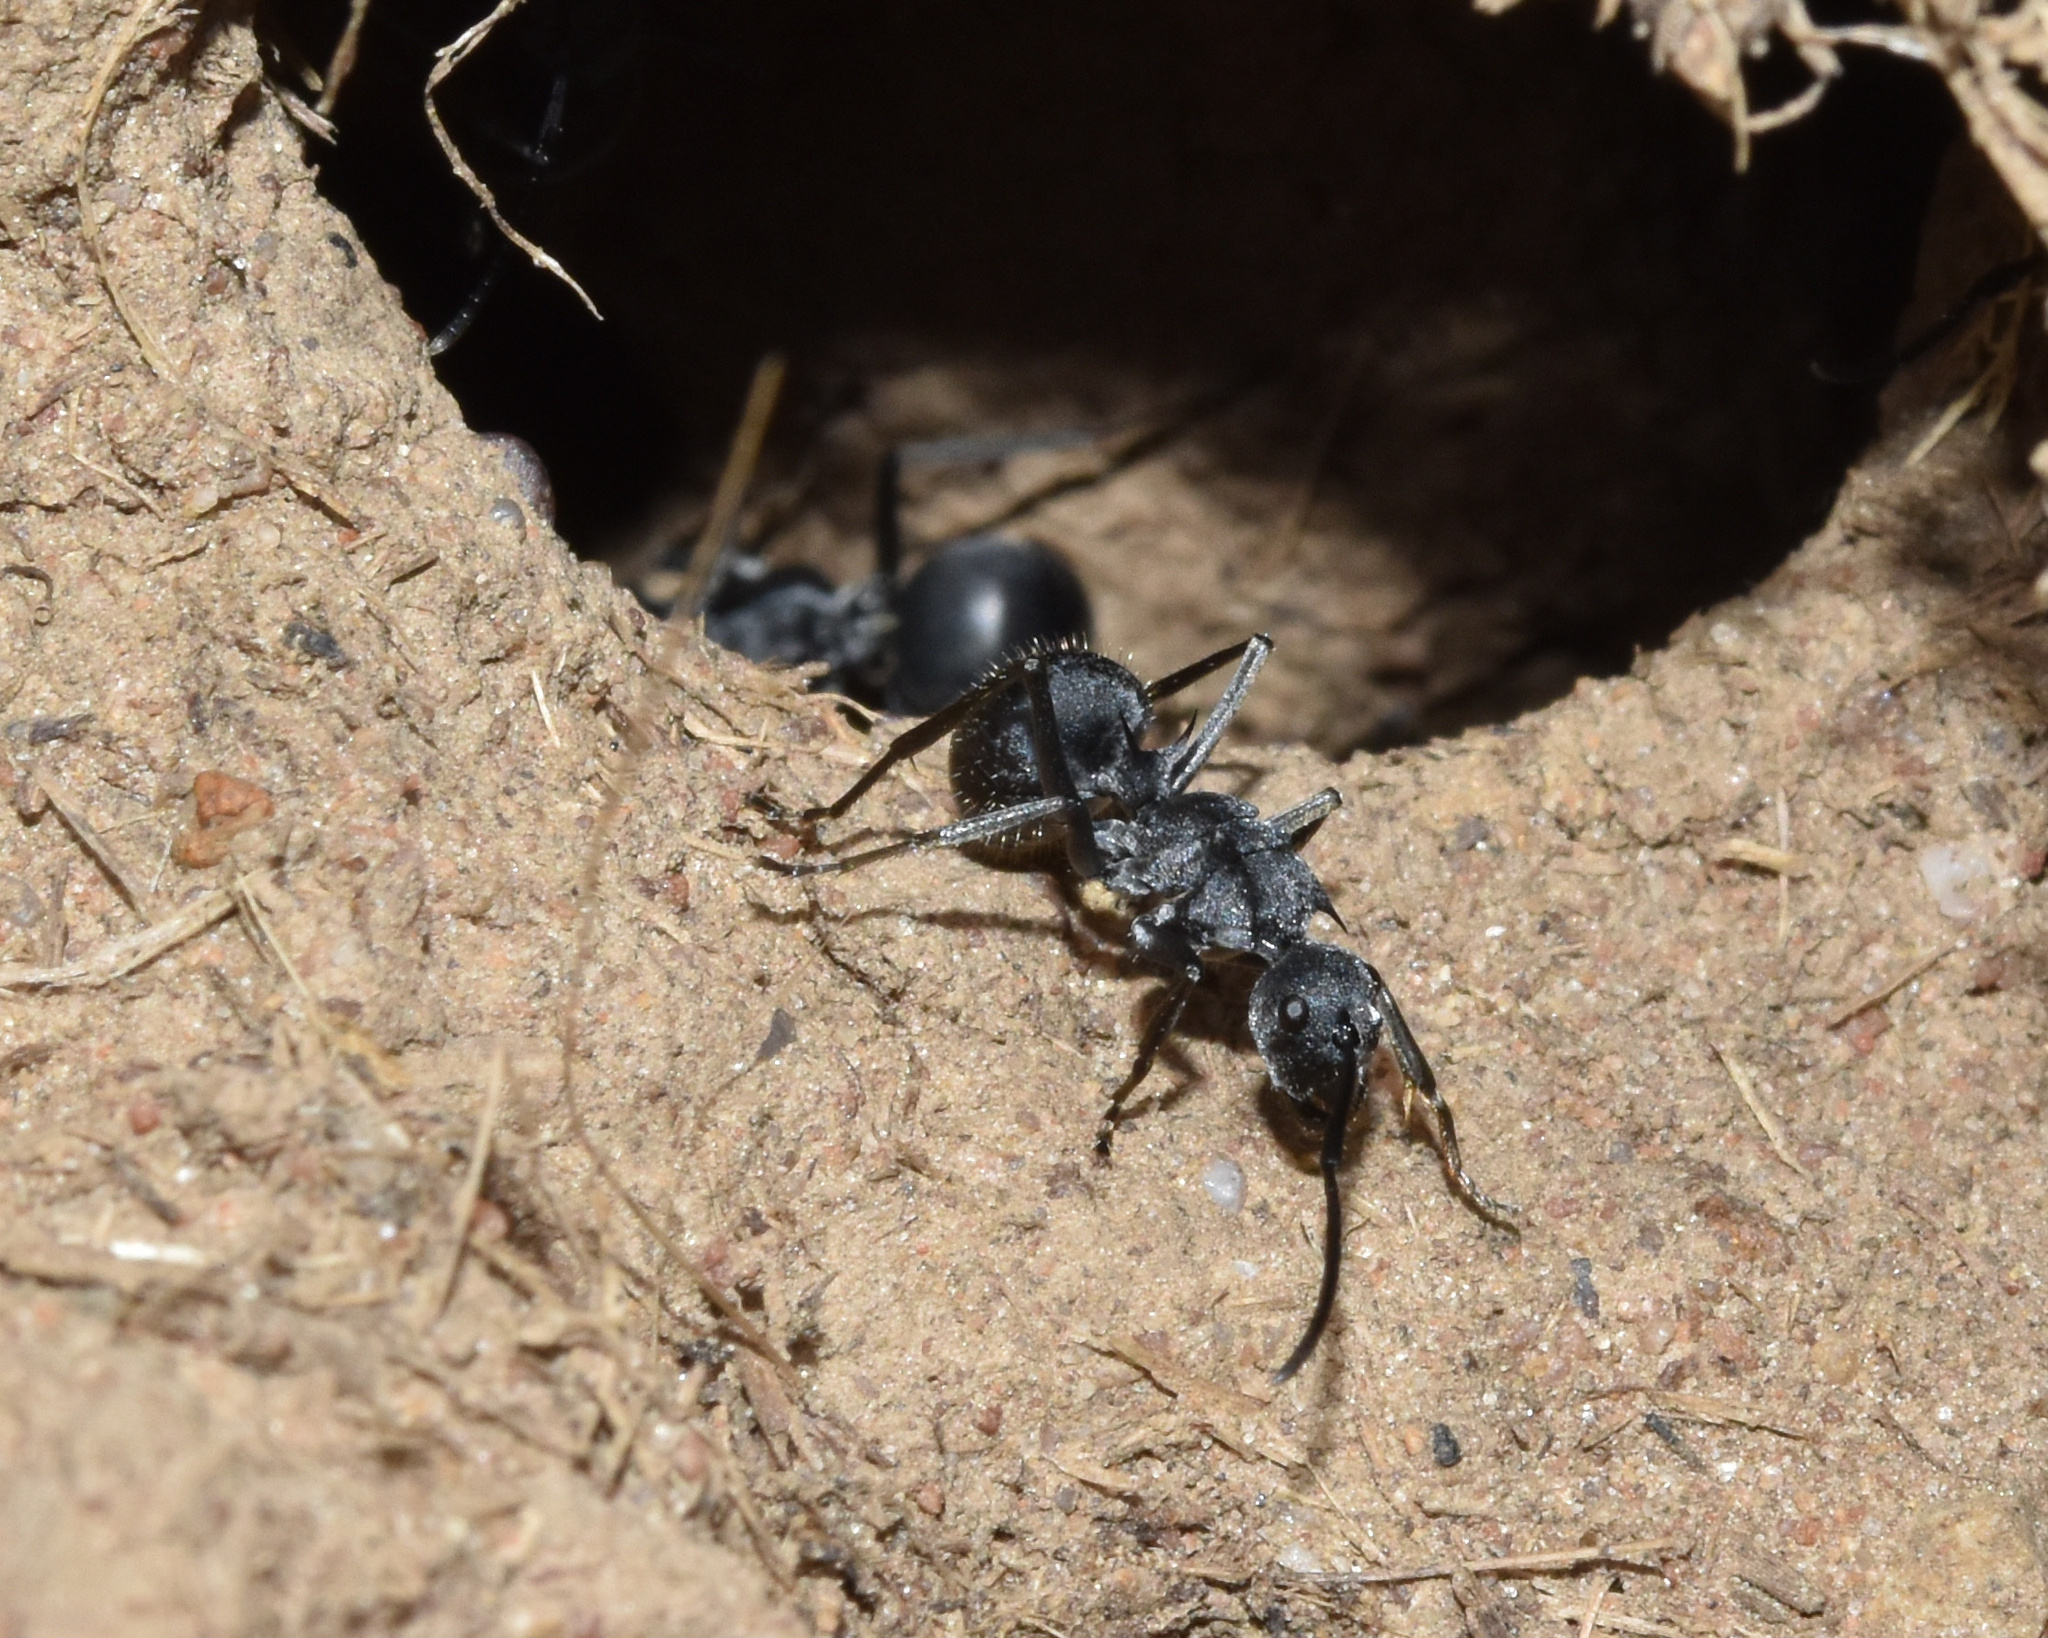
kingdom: Animalia
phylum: Arthropoda
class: Insecta
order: Hymenoptera
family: Formicidae
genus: Polyrhachis
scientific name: Polyrhachis schistacea
